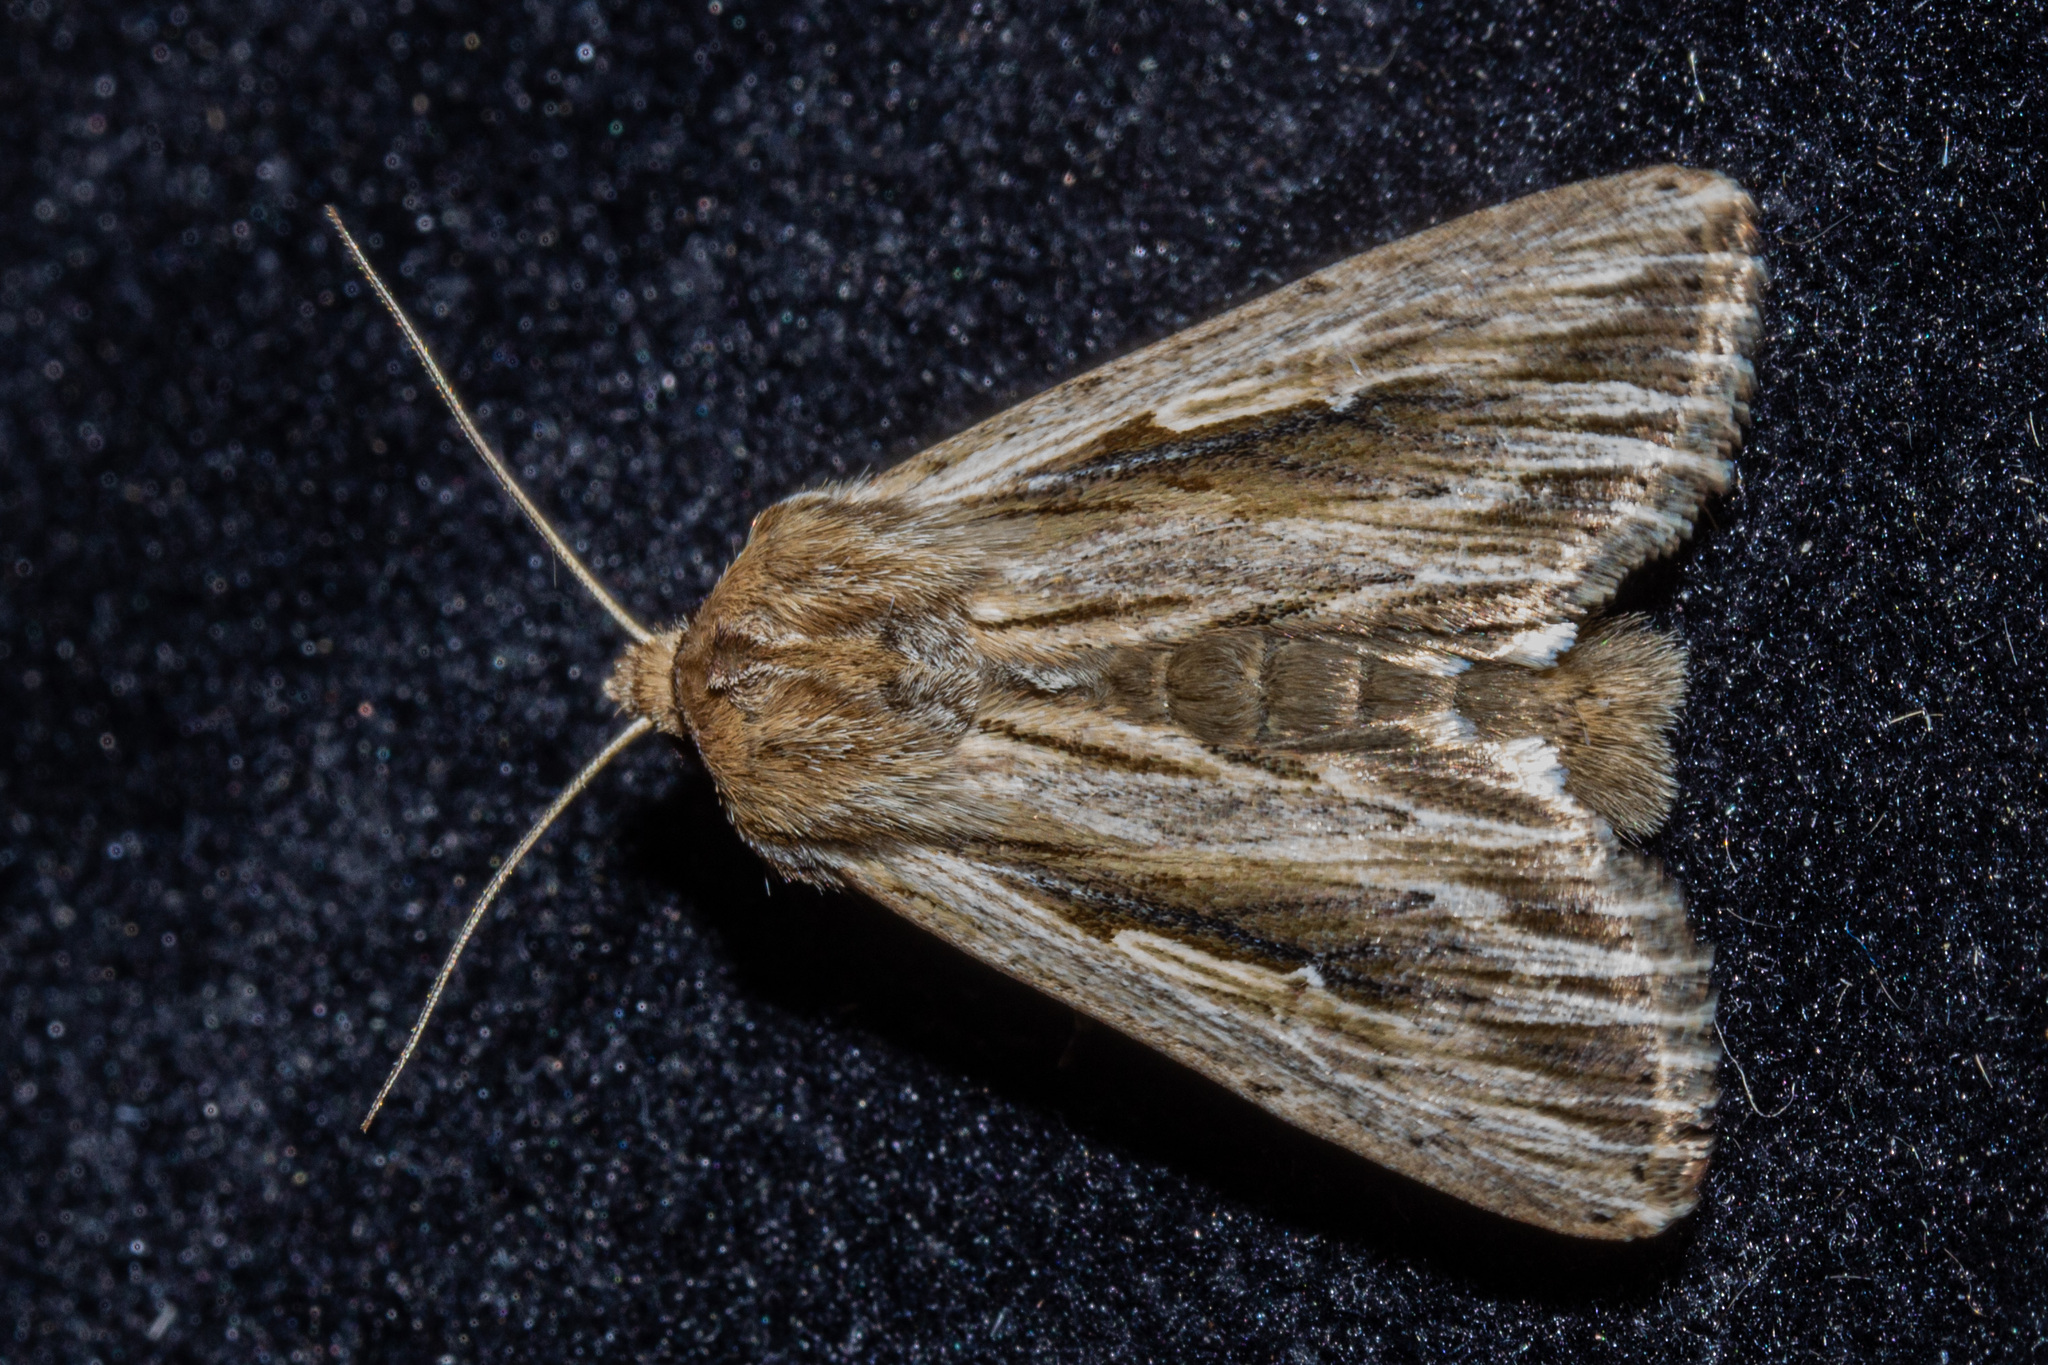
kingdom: Animalia
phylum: Arthropoda
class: Insecta
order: Lepidoptera
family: Noctuidae
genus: Persectania
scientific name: Persectania aversa
